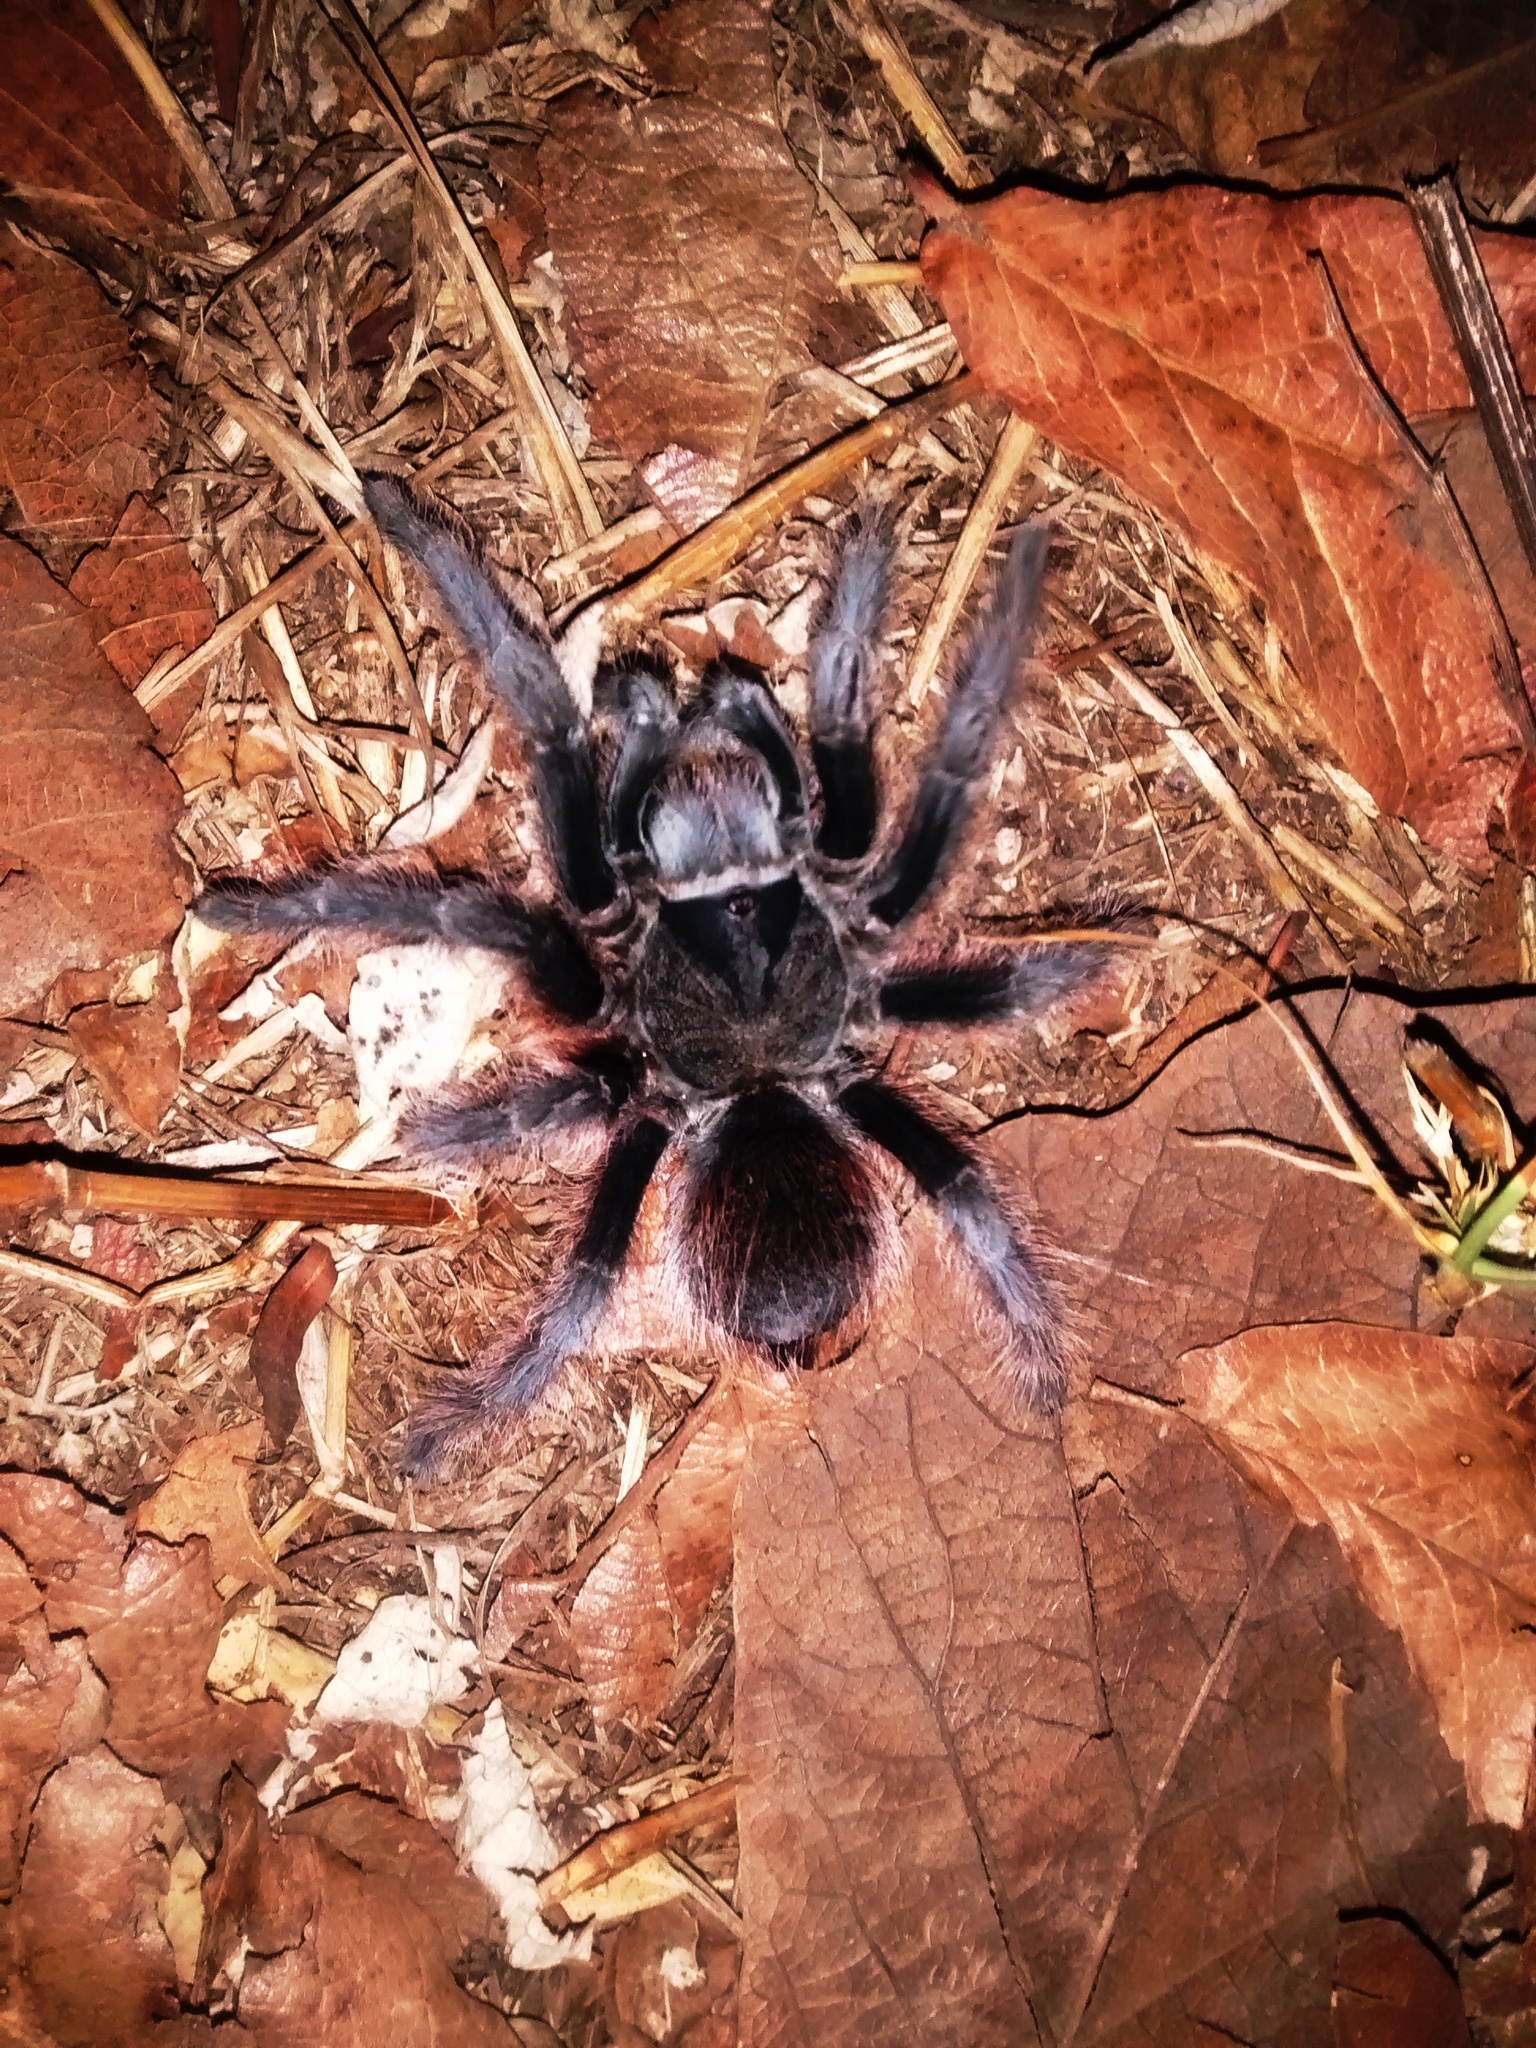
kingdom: Animalia
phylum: Arthropoda
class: Arachnida
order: Araneae
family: Theraphosidae
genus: Aphonopelma
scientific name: Aphonopelma anitahoffmannae
